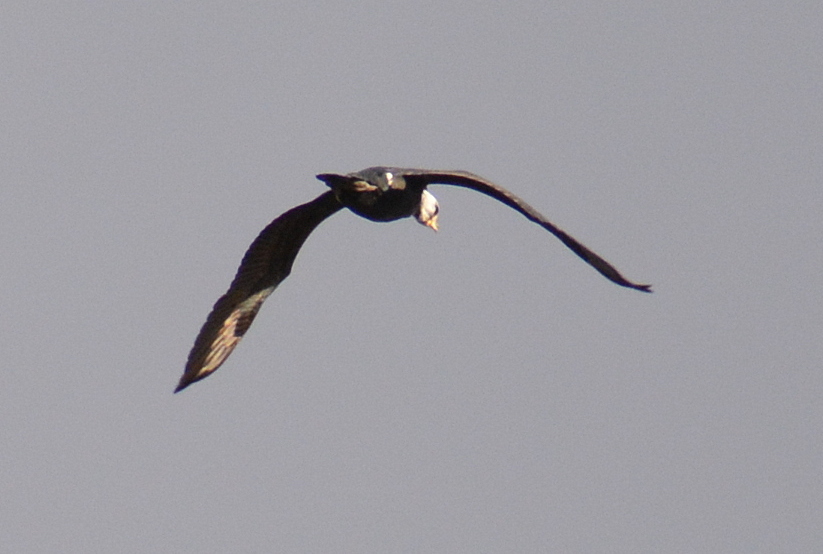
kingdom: Animalia
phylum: Chordata
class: Aves
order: Suliformes
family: Phalacrocoracidae
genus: Phalacrocorax
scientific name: Phalacrocorax carbo
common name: Great cormorant
